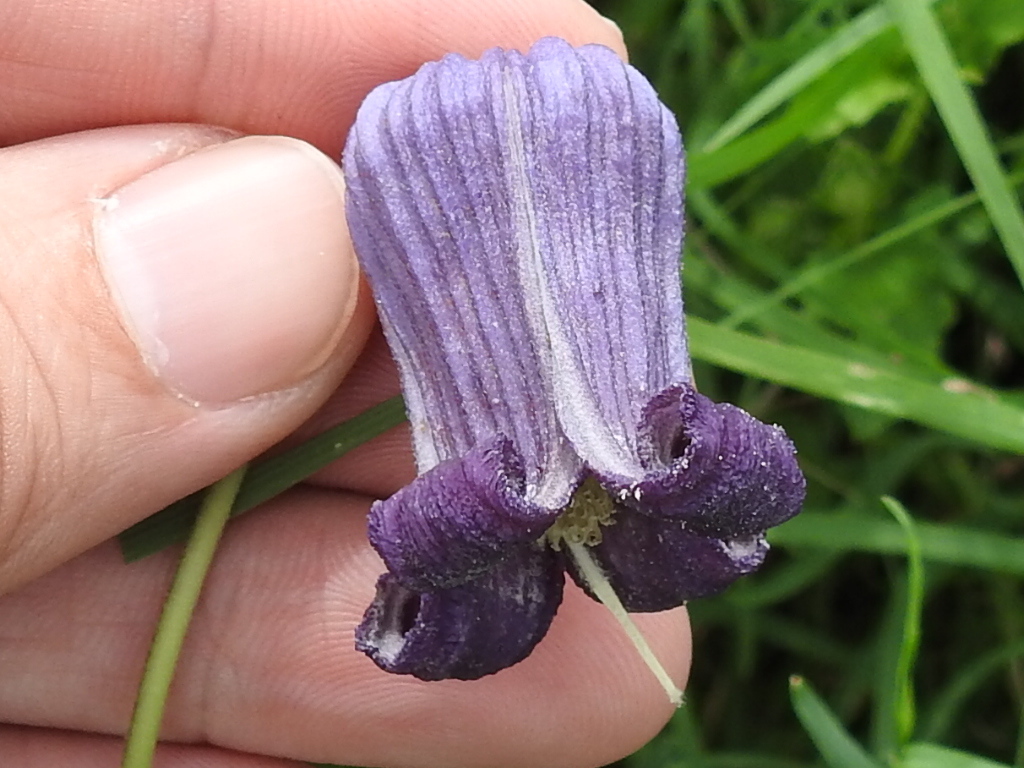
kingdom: Plantae
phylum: Tracheophyta
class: Magnoliopsida
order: Ranunculales
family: Ranunculaceae
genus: Clematis
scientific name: Clematis pitcheri
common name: Bellflower clematis
